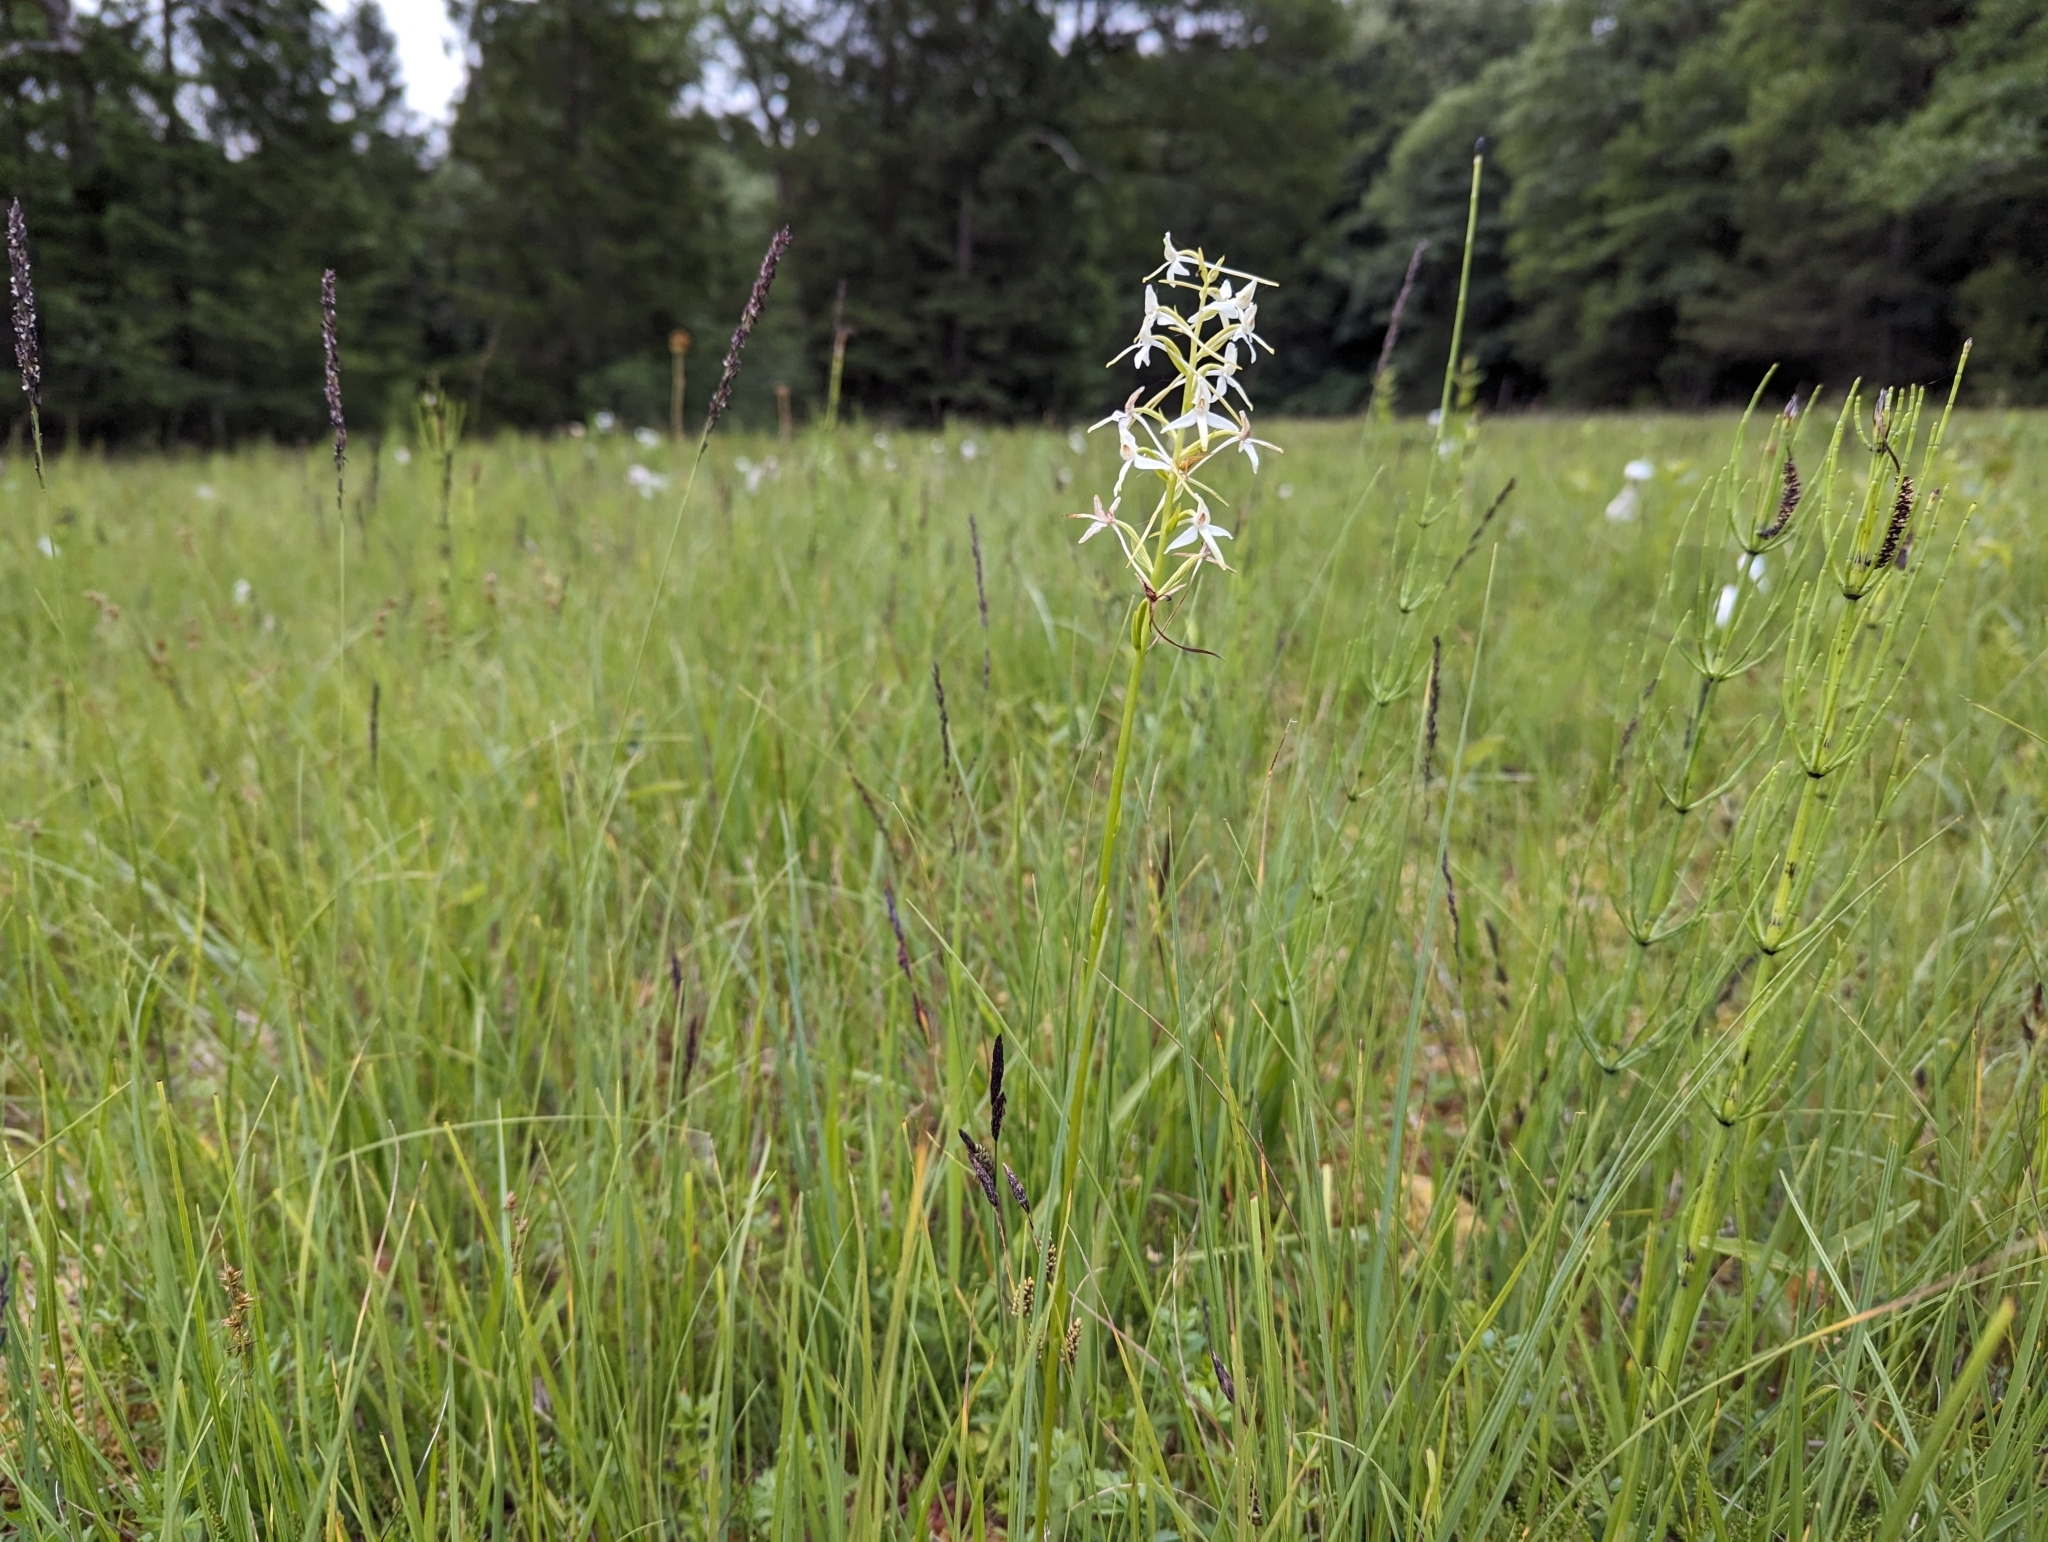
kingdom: Plantae
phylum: Tracheophyta
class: Liliopsida
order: Asparagales
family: Orchidaceae
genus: Platanthera
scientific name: Platanthera bifolia
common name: Lesser butterfly-orchid
